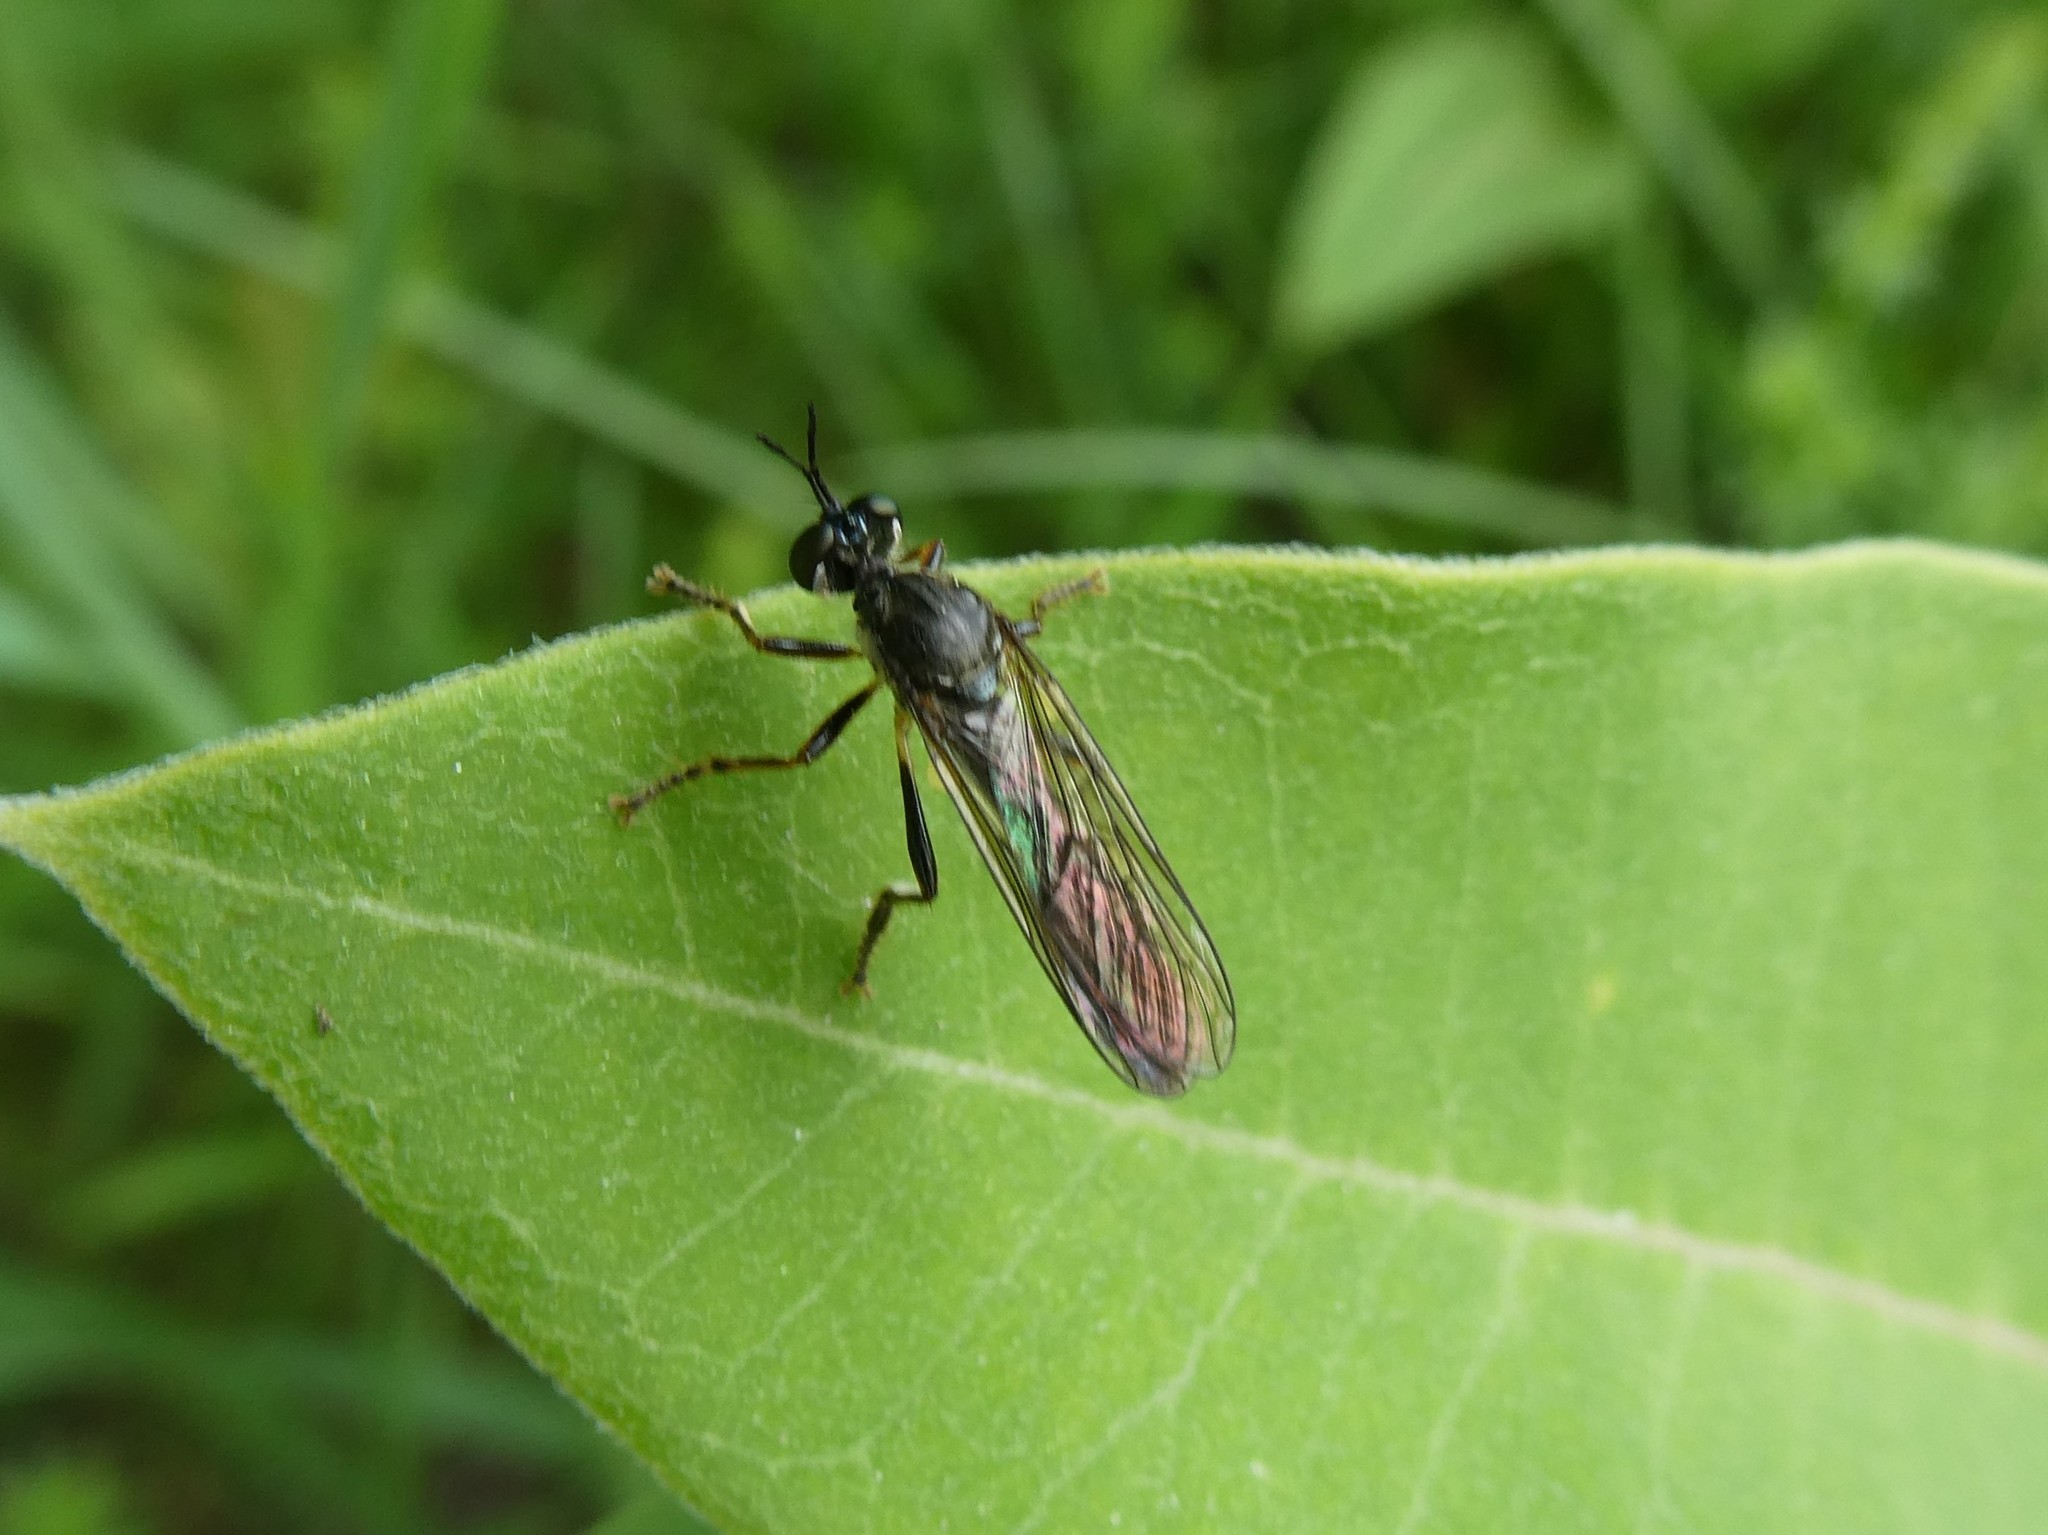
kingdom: Animalia
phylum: Arthropoda
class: Insecta
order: Diptera
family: Asilidae
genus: Dioctria
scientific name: Dioctria hyalipennis
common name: Stripe-legged robberfly
